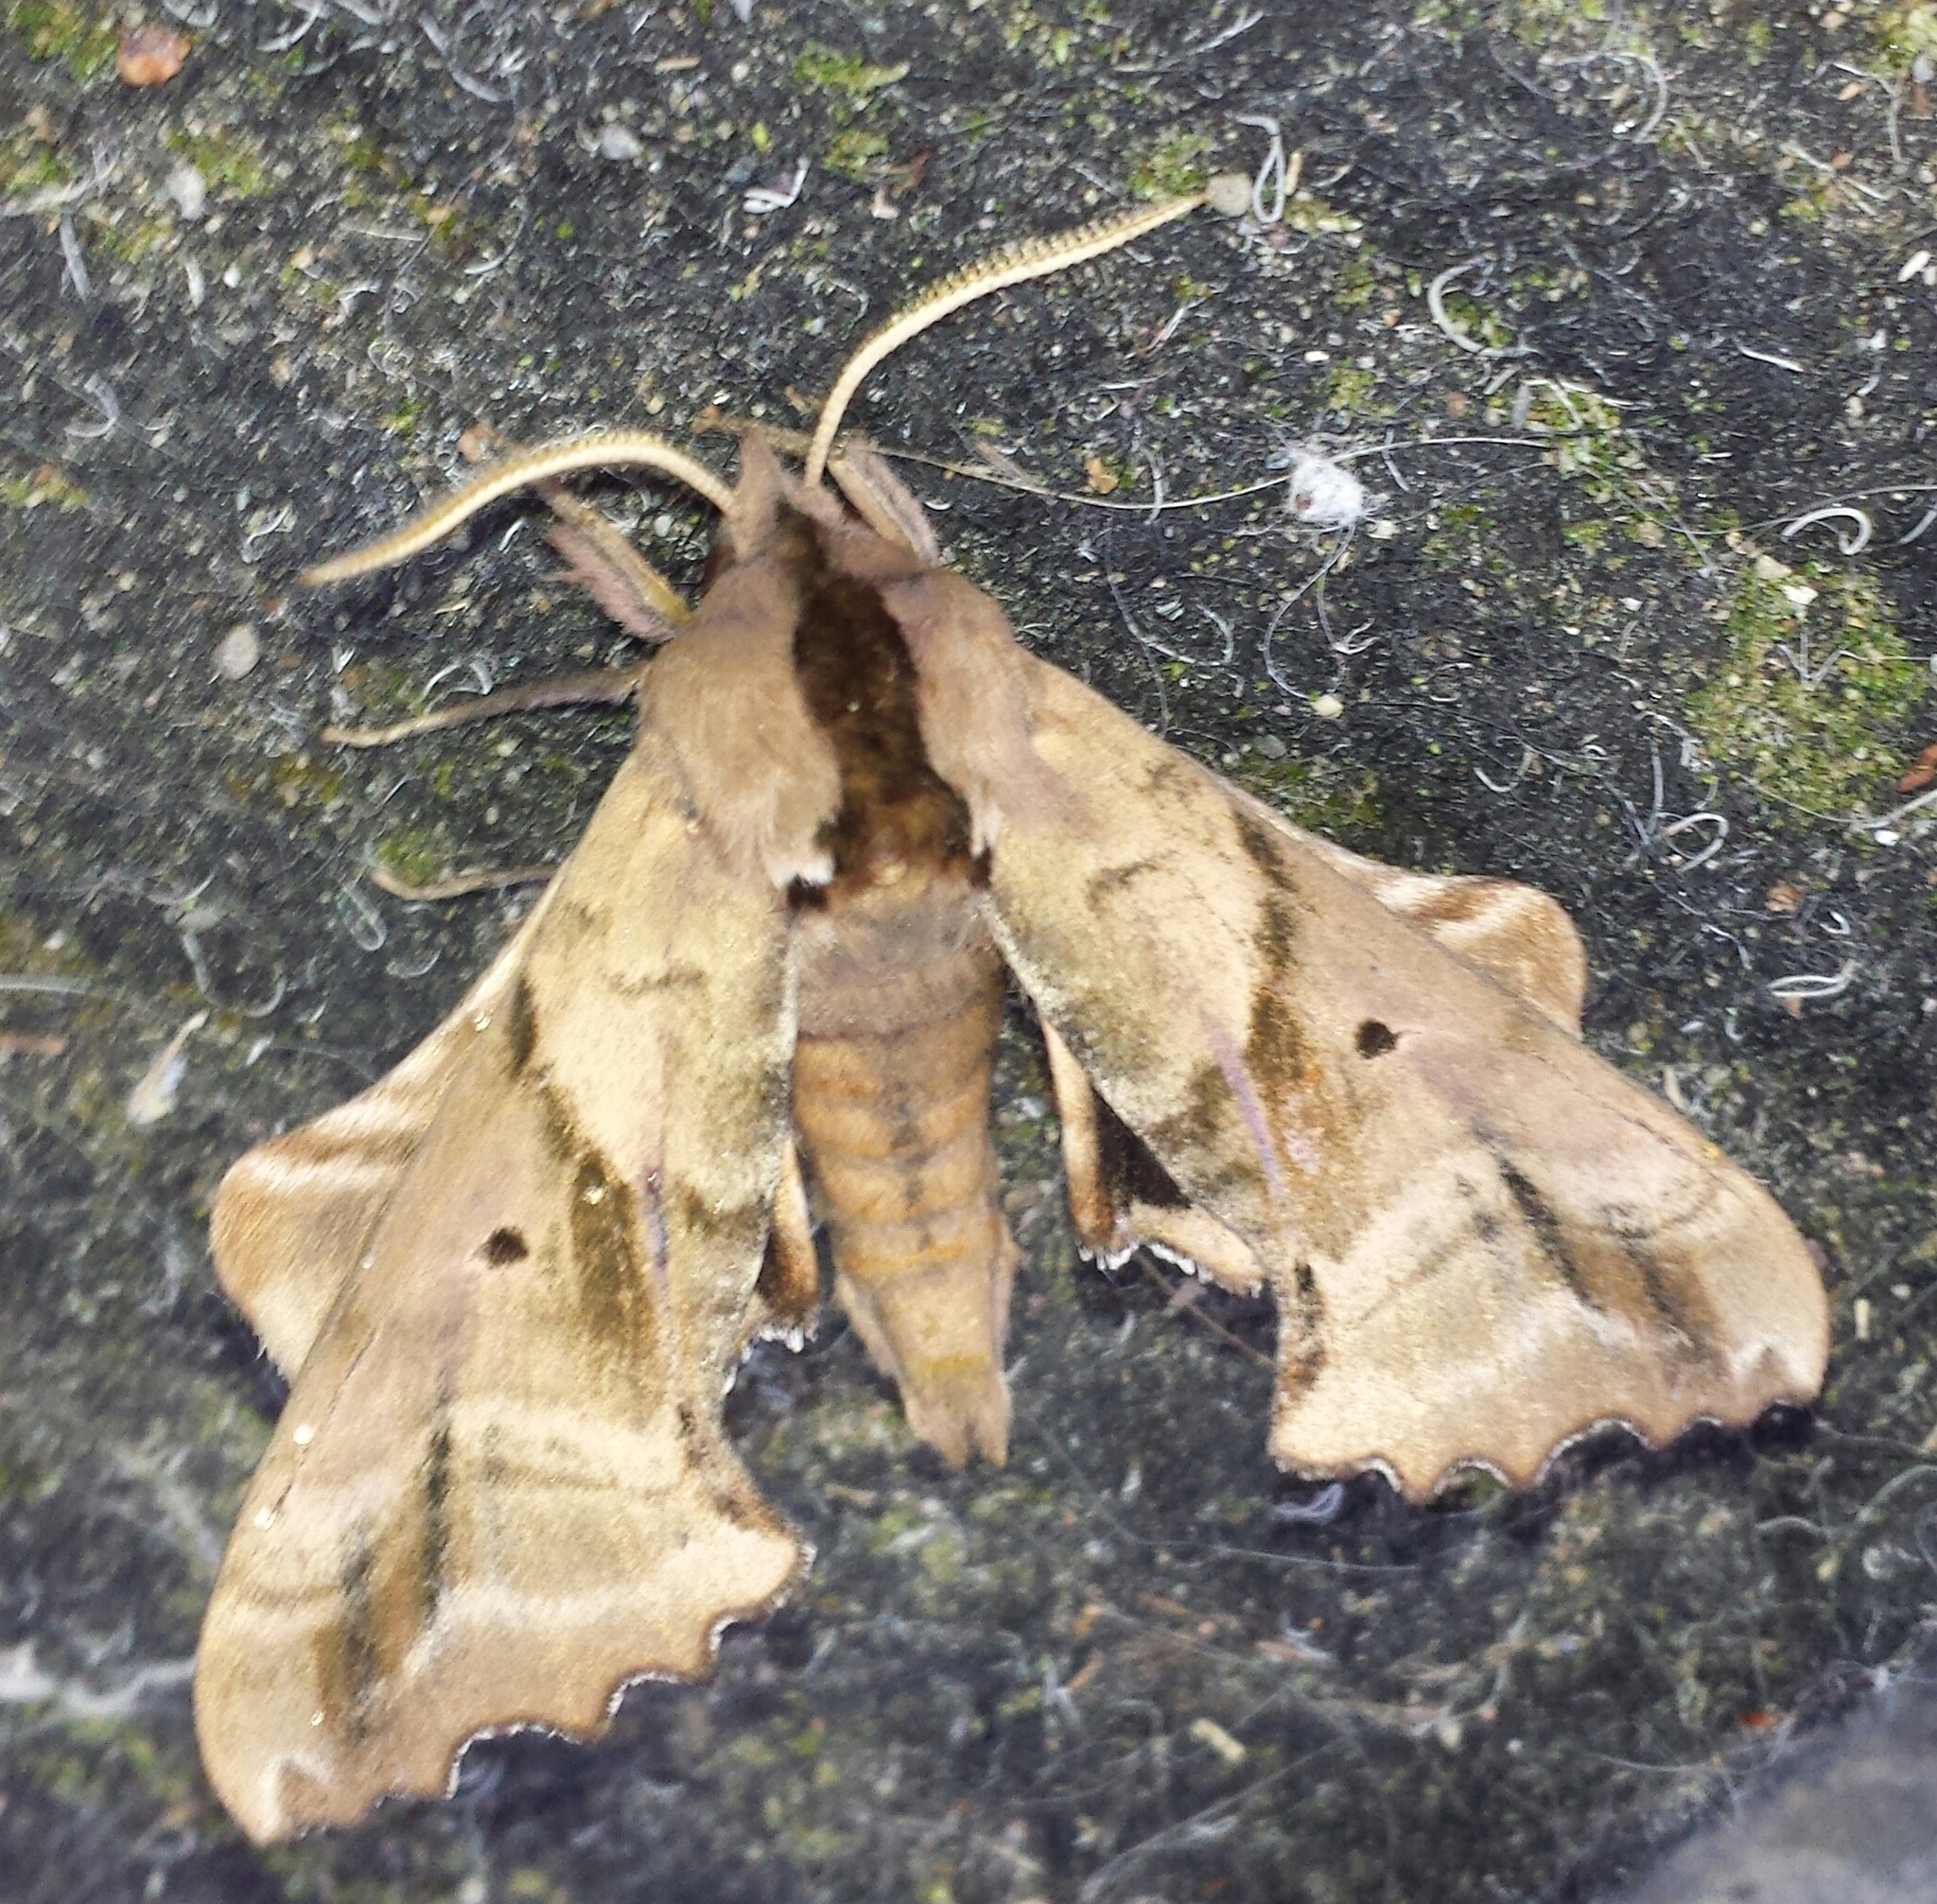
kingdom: Animalia
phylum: Arthropoda
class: Insecta
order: Lepidoptera
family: Sphingidae
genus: Paonias
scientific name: Paonias excaecata
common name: Blind-eyed sphinx
